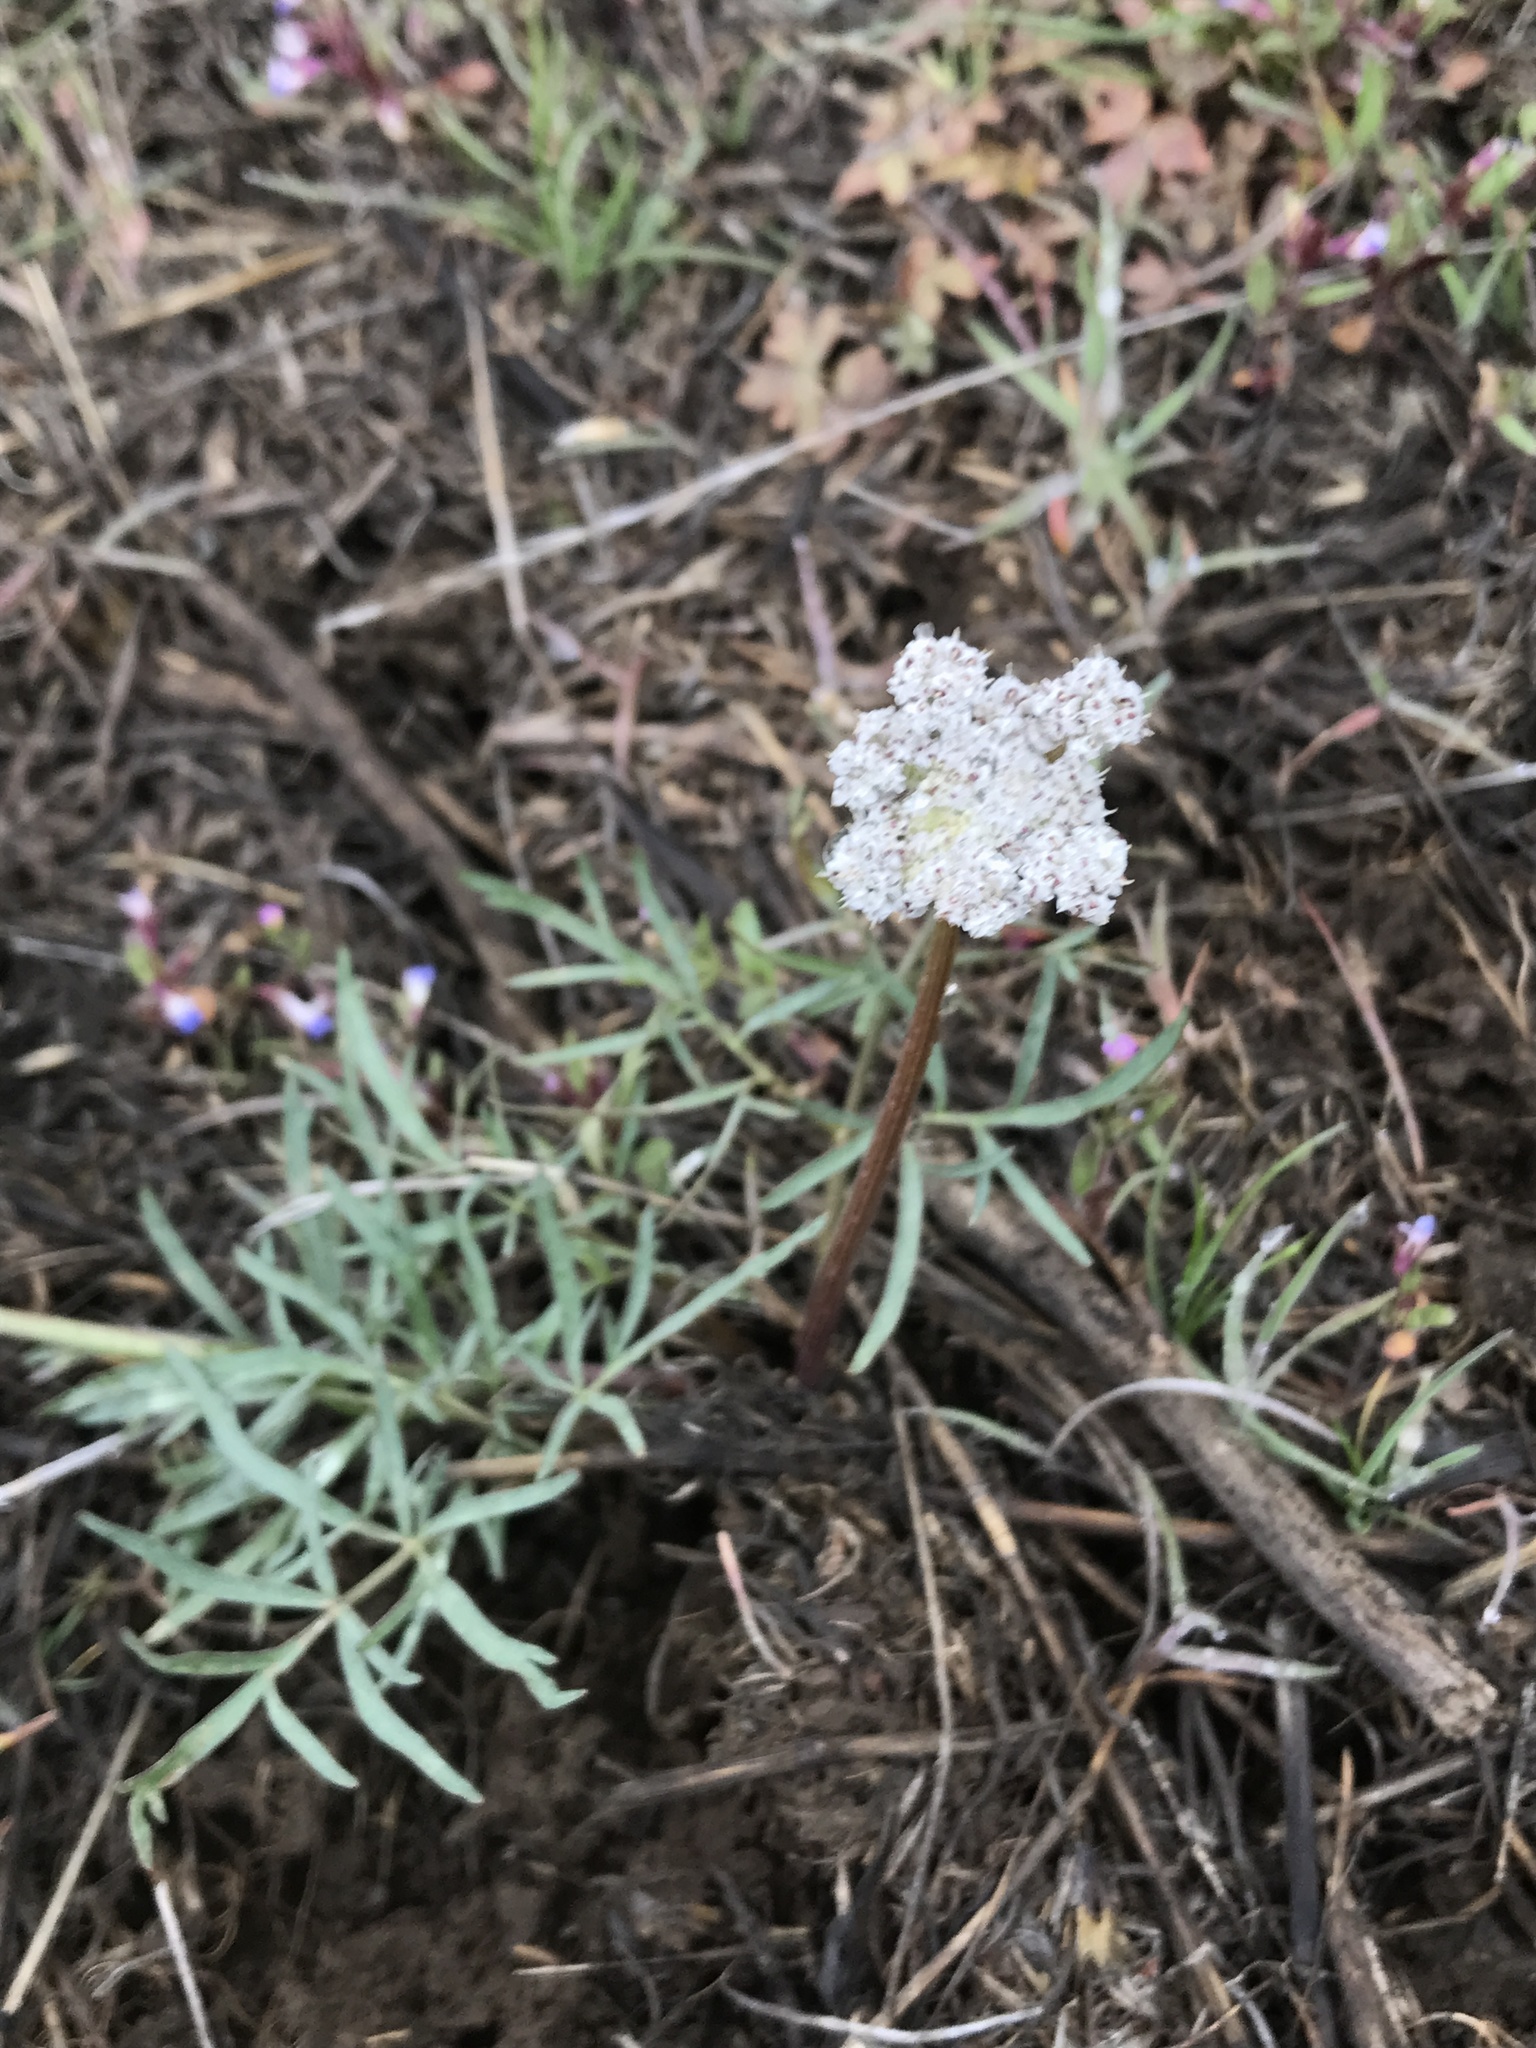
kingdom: Plantae
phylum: Tracheophyta
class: Magnoliopsida
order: Apiales
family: Apiaceae
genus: Lomatium
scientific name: Lomatium geyeri
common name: Geyer's biscuitroot
